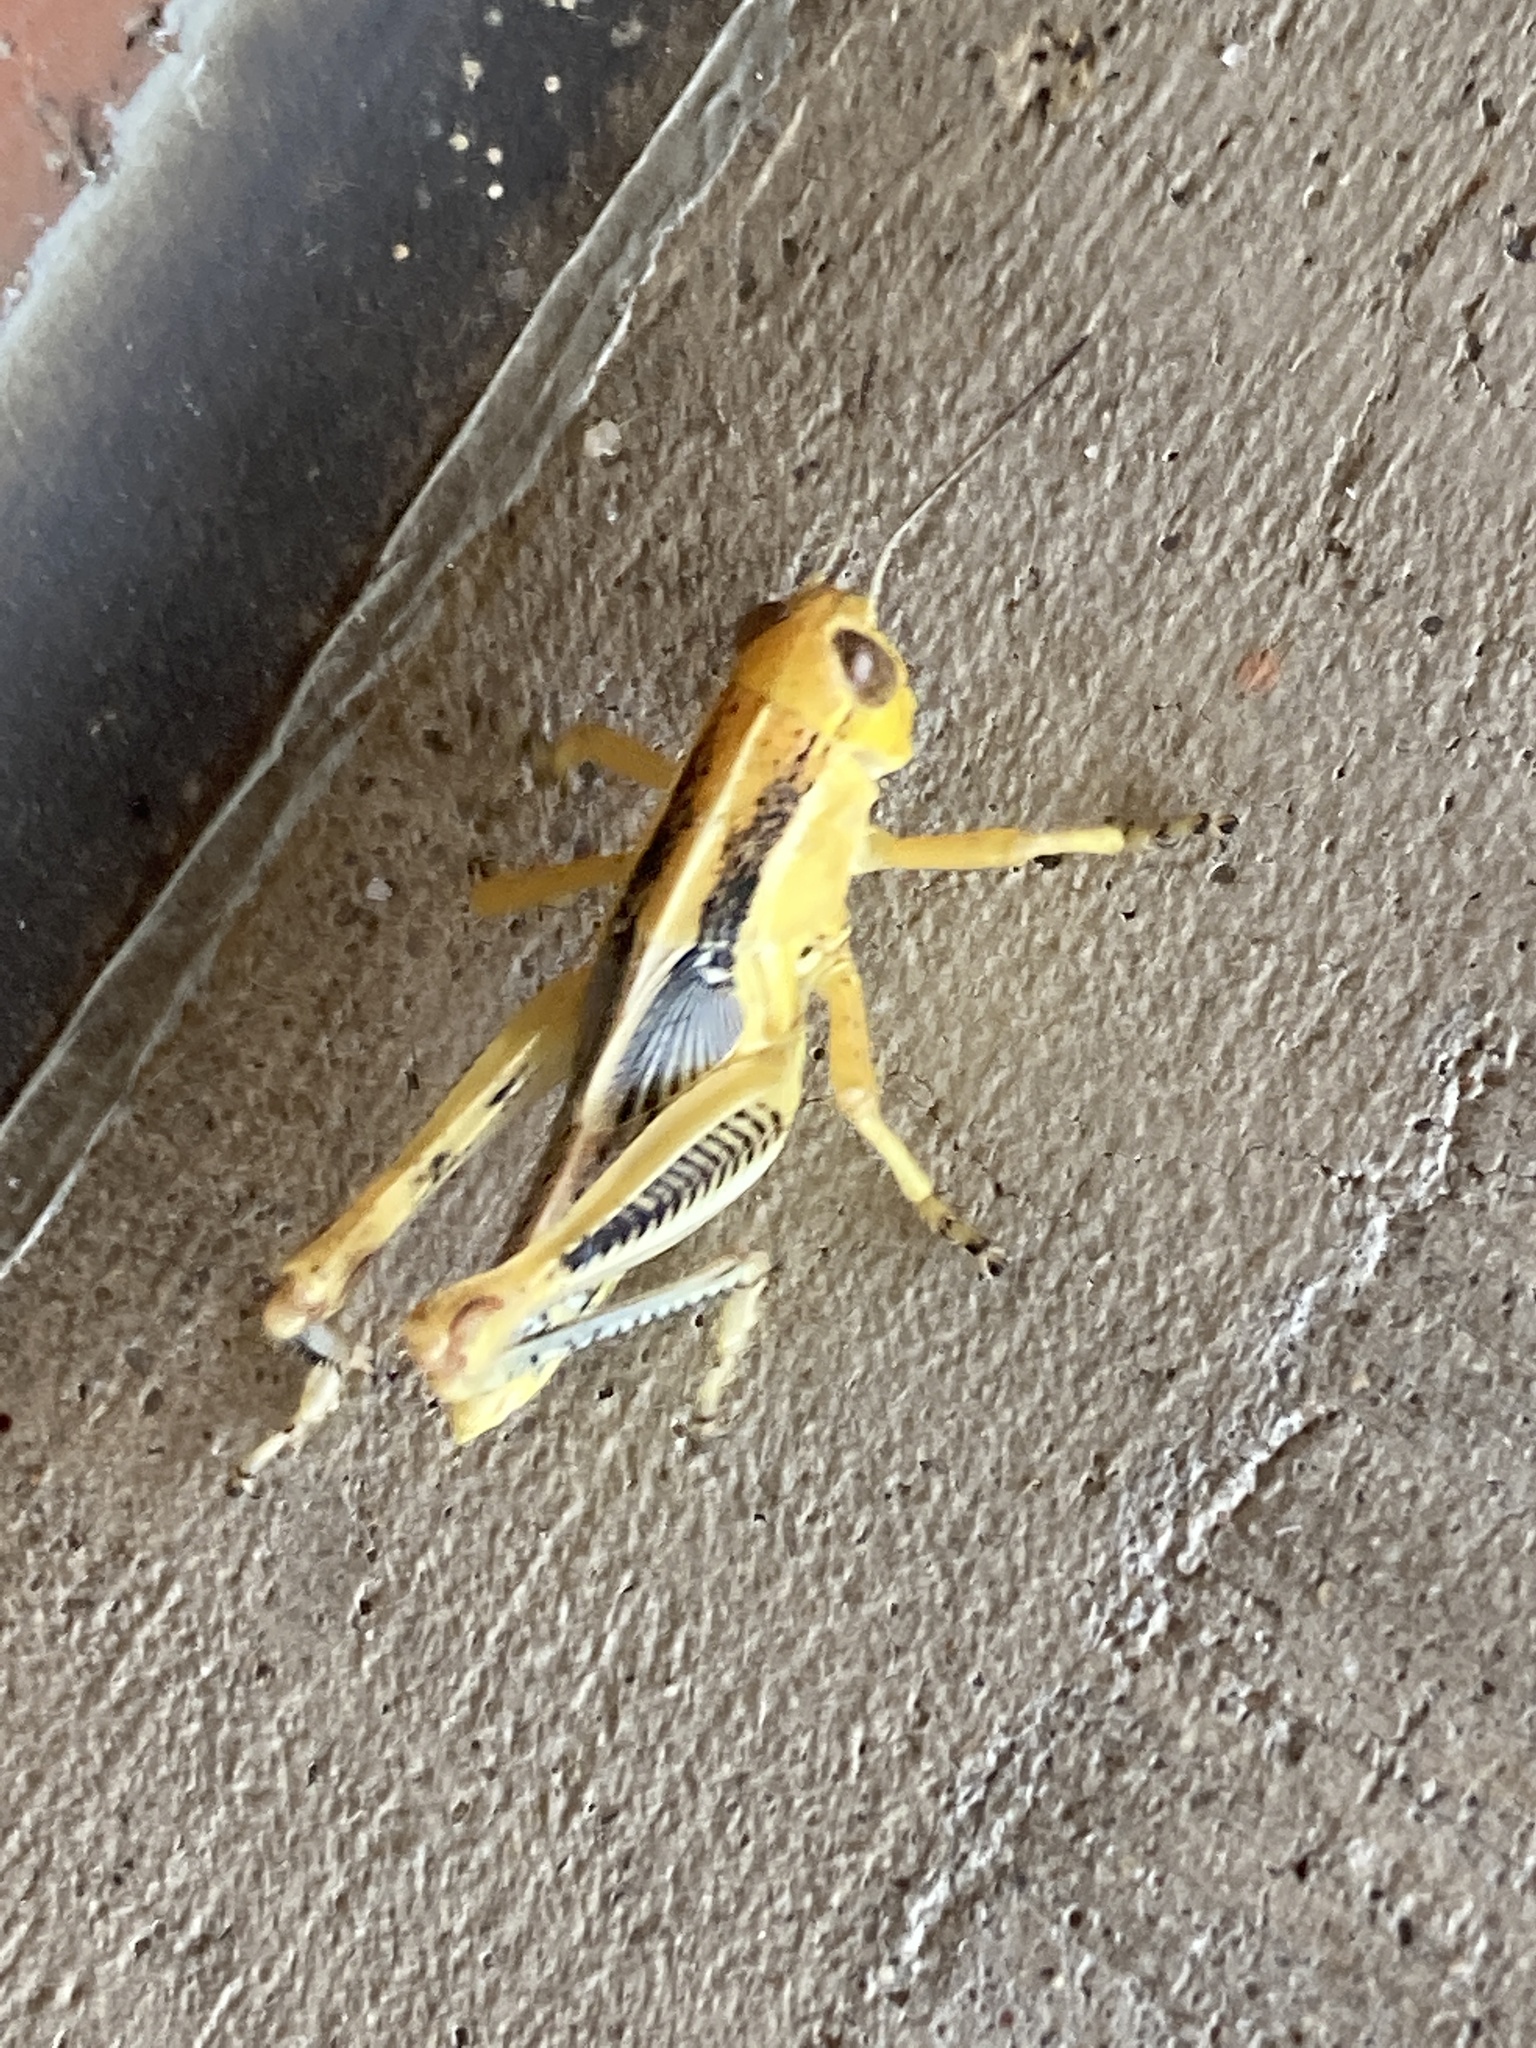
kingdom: Animalia
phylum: Arthropoda
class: Insecta
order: Orthoptera
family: Acrididae
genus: Melanoplus
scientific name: Melanoplus differentialis
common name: Differential grasshopper
